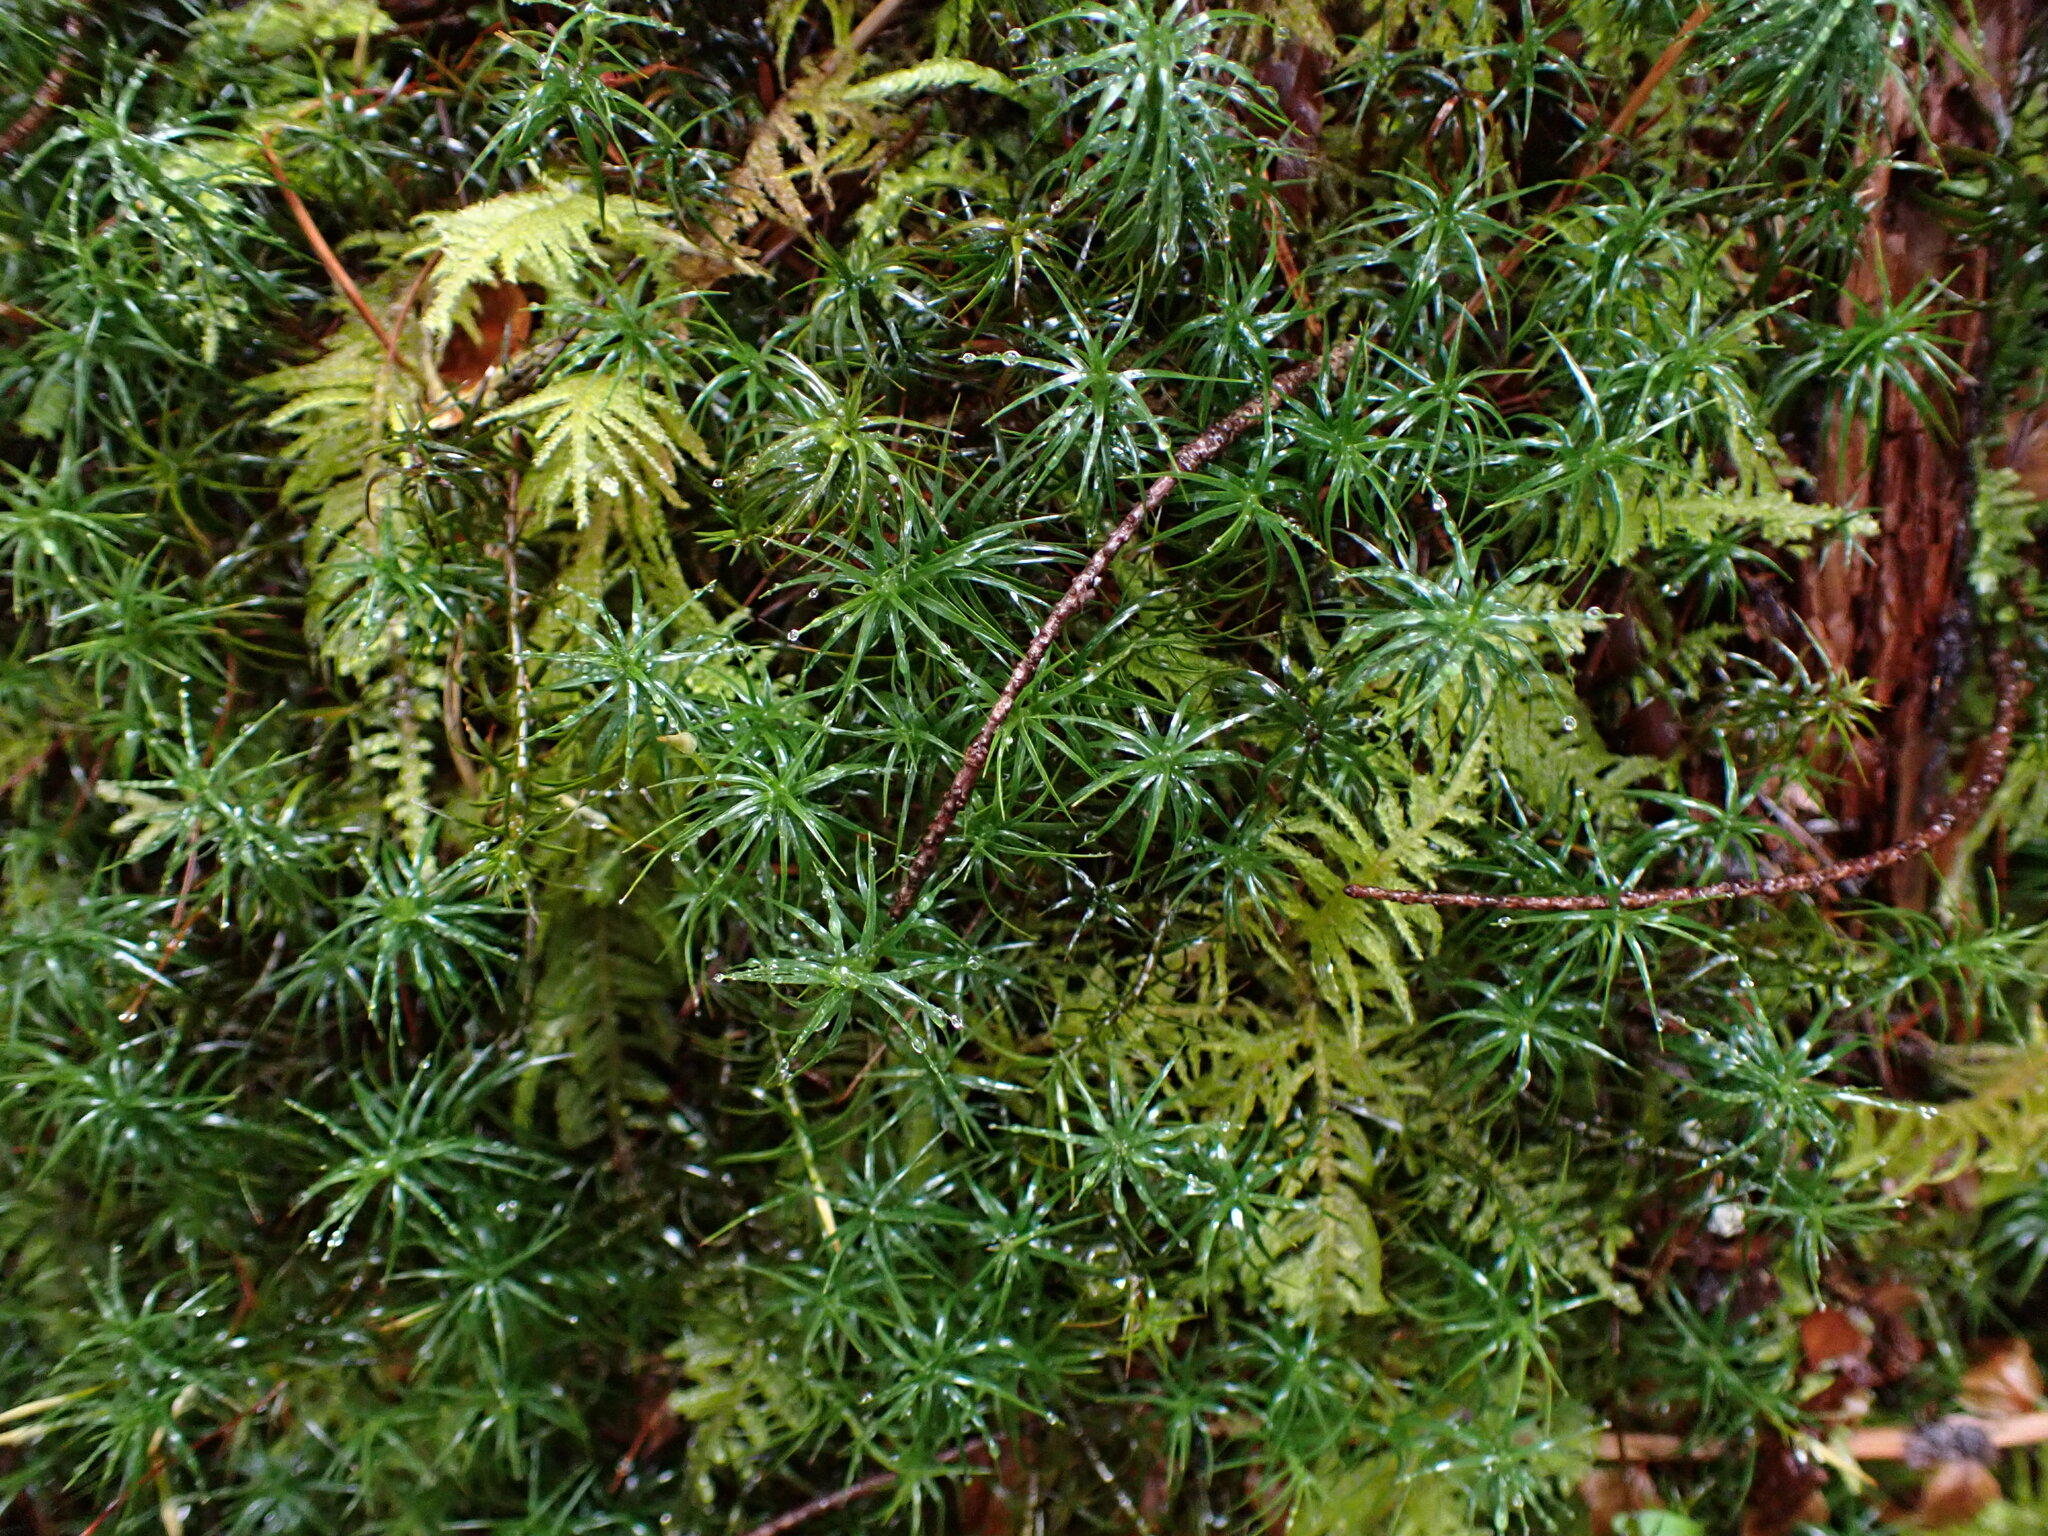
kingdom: Plantae
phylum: Bryophyta
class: Polytrichopsida
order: Polytrichales
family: Polytrichaceae
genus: Polytrichastrum
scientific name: Polytrichastrum alpinum
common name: Alpine haircap
